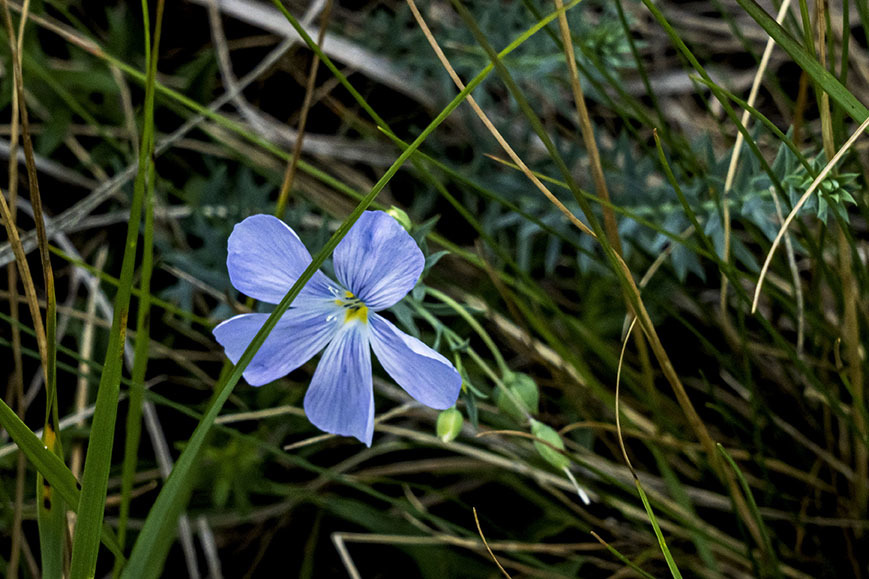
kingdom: Plantae
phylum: Tracheophyta
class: Magnoliopsida
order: Malpighiales
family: Linaceae
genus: Linum
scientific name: Linum lewisii
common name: Prairie flax
